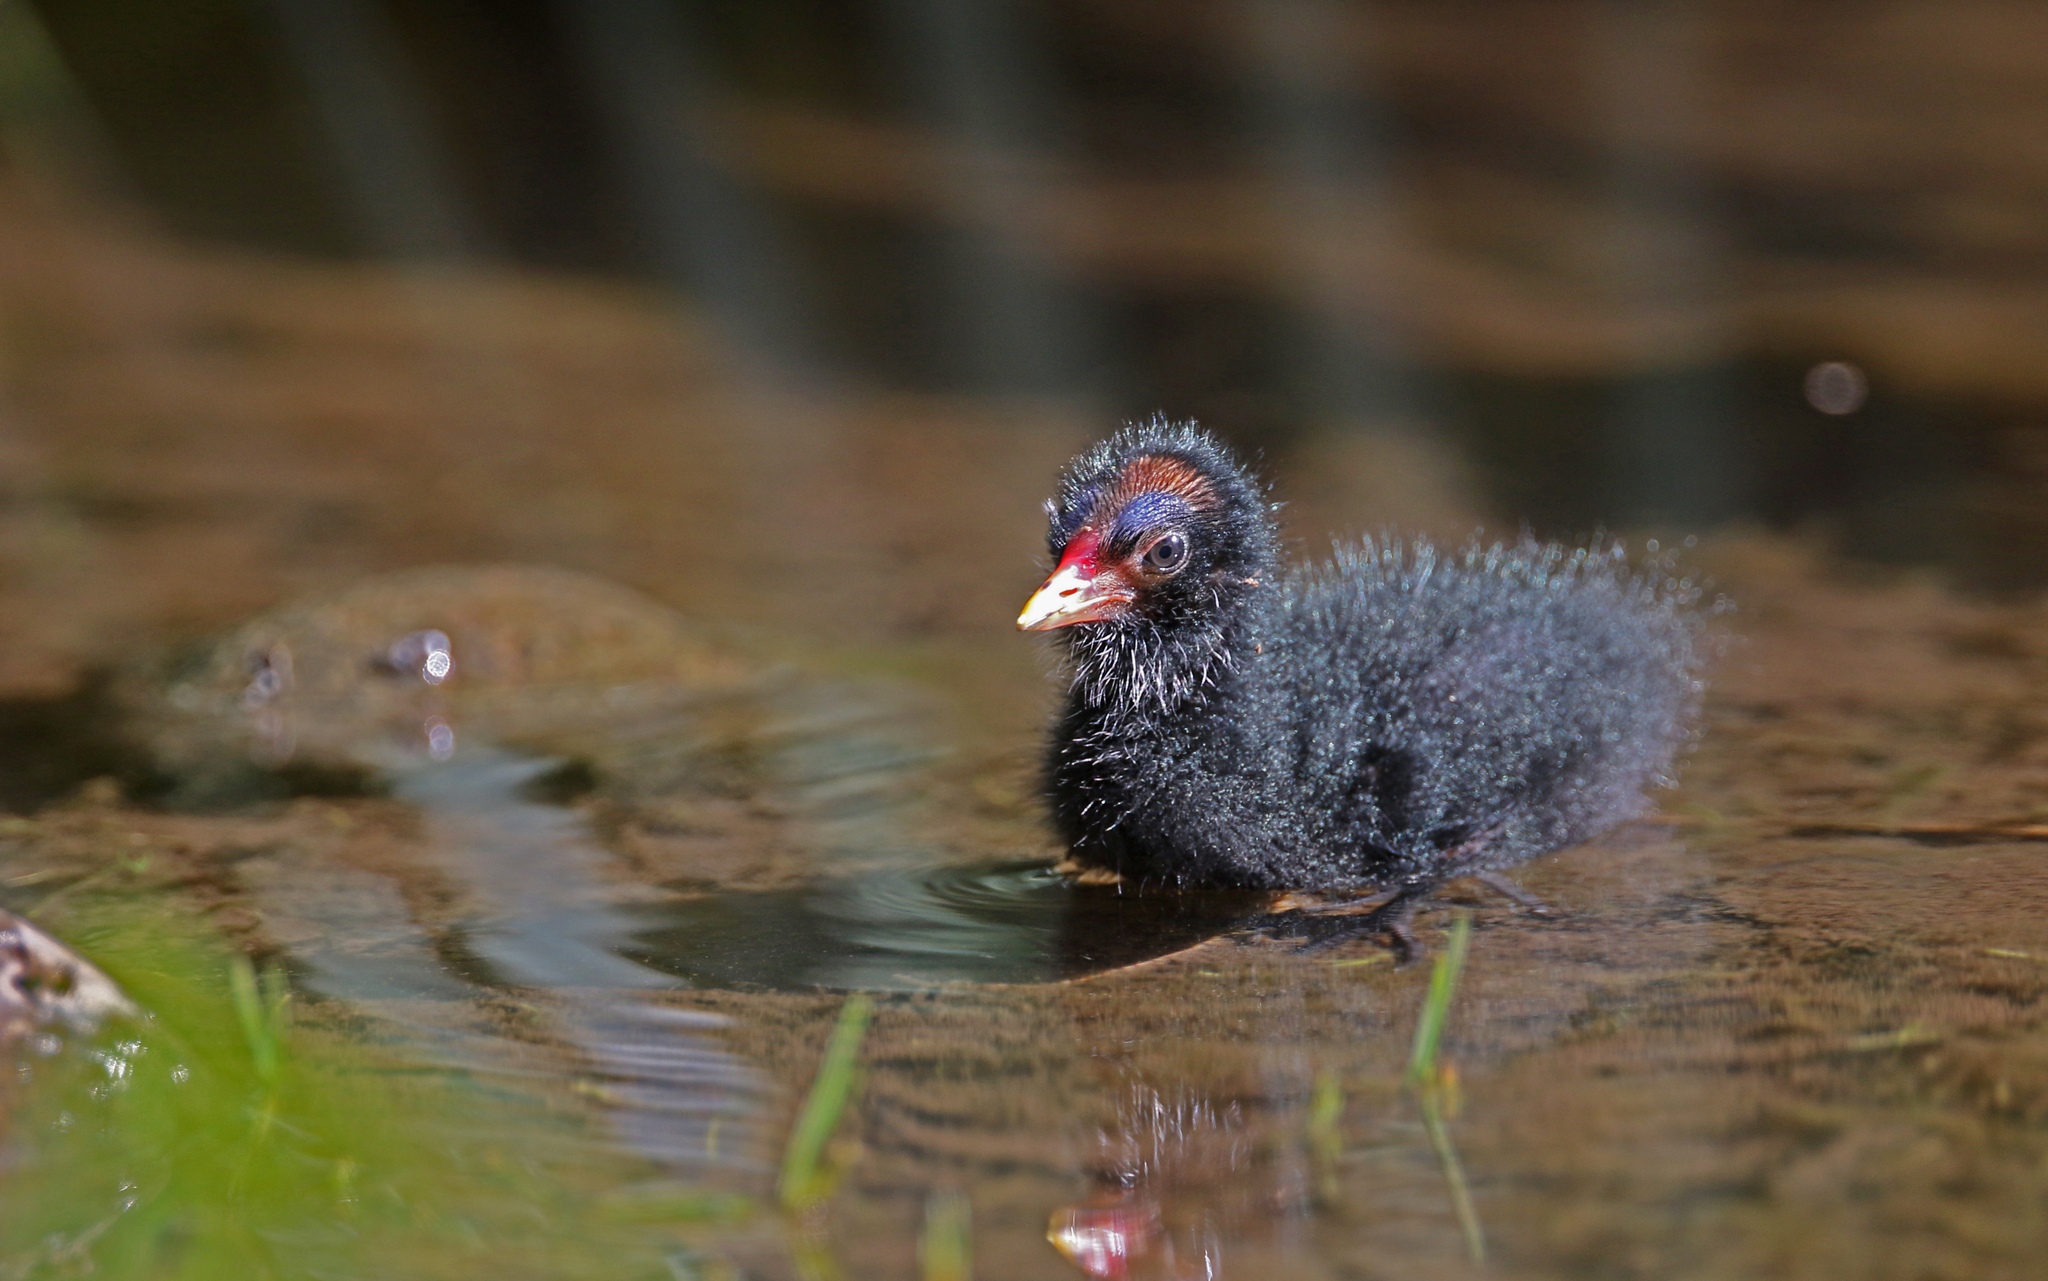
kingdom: Animalia
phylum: Chordata
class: Aves
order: Gruiformes
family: Rallidae
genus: Gallinula
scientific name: Gallinula chloropus
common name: Common moorhen
